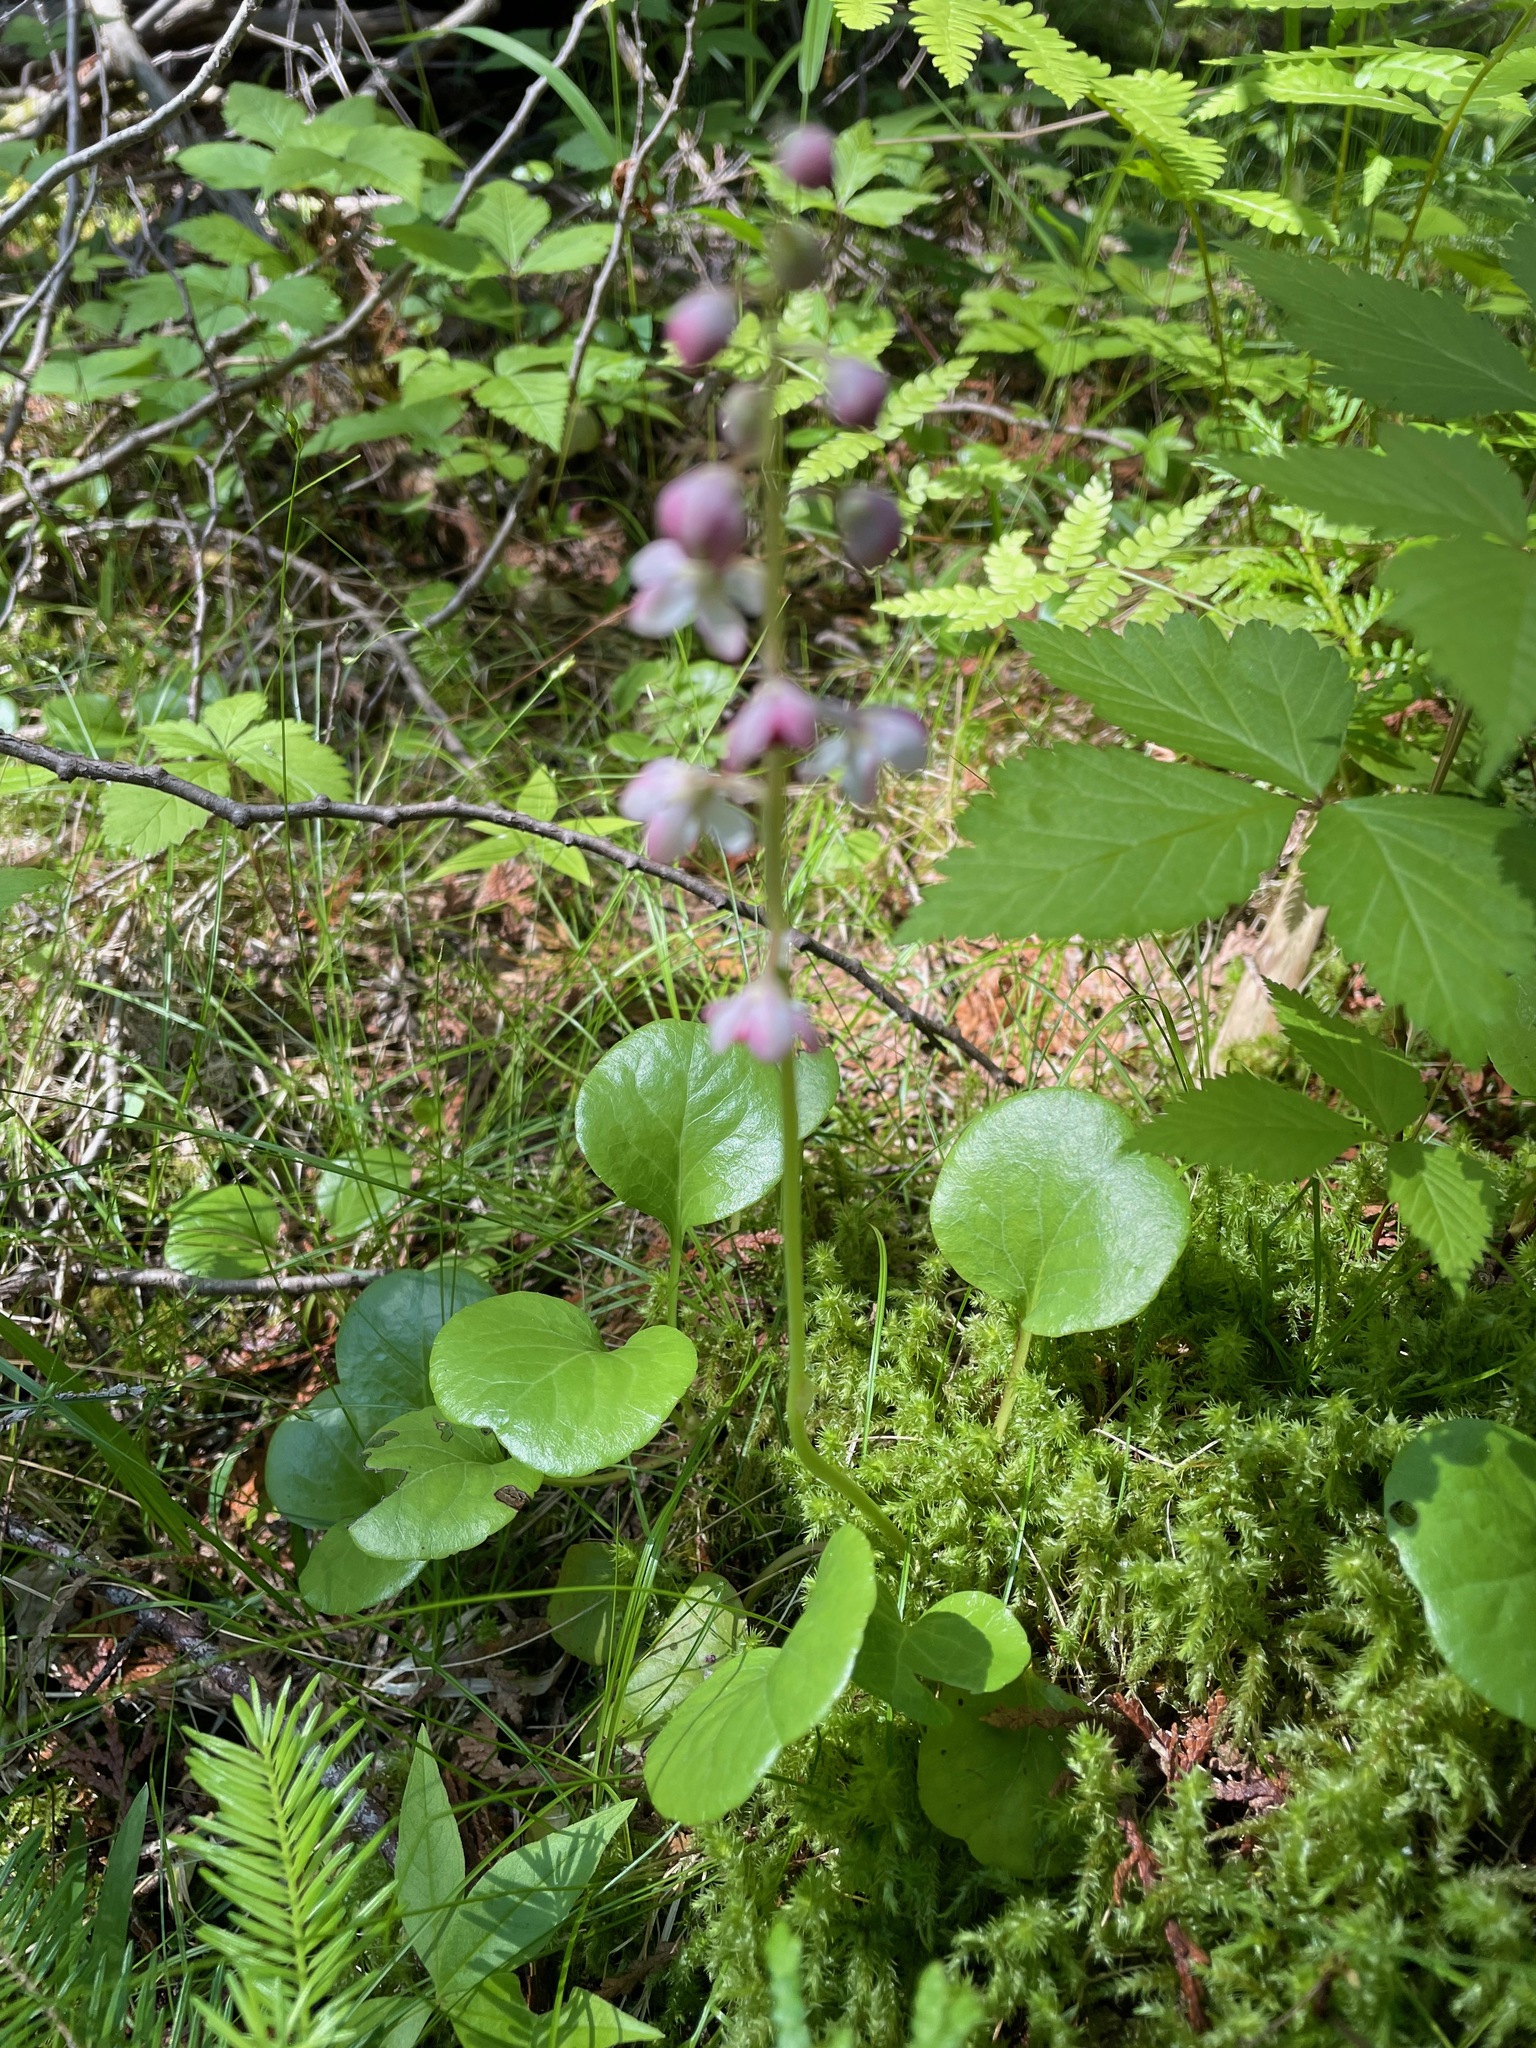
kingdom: Plantae
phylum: Tracheophyta
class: Magnoliopsida
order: Ericales
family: Ericaceae
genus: Pyrola
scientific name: Pyrola asarifolia
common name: Bog wintergreen
